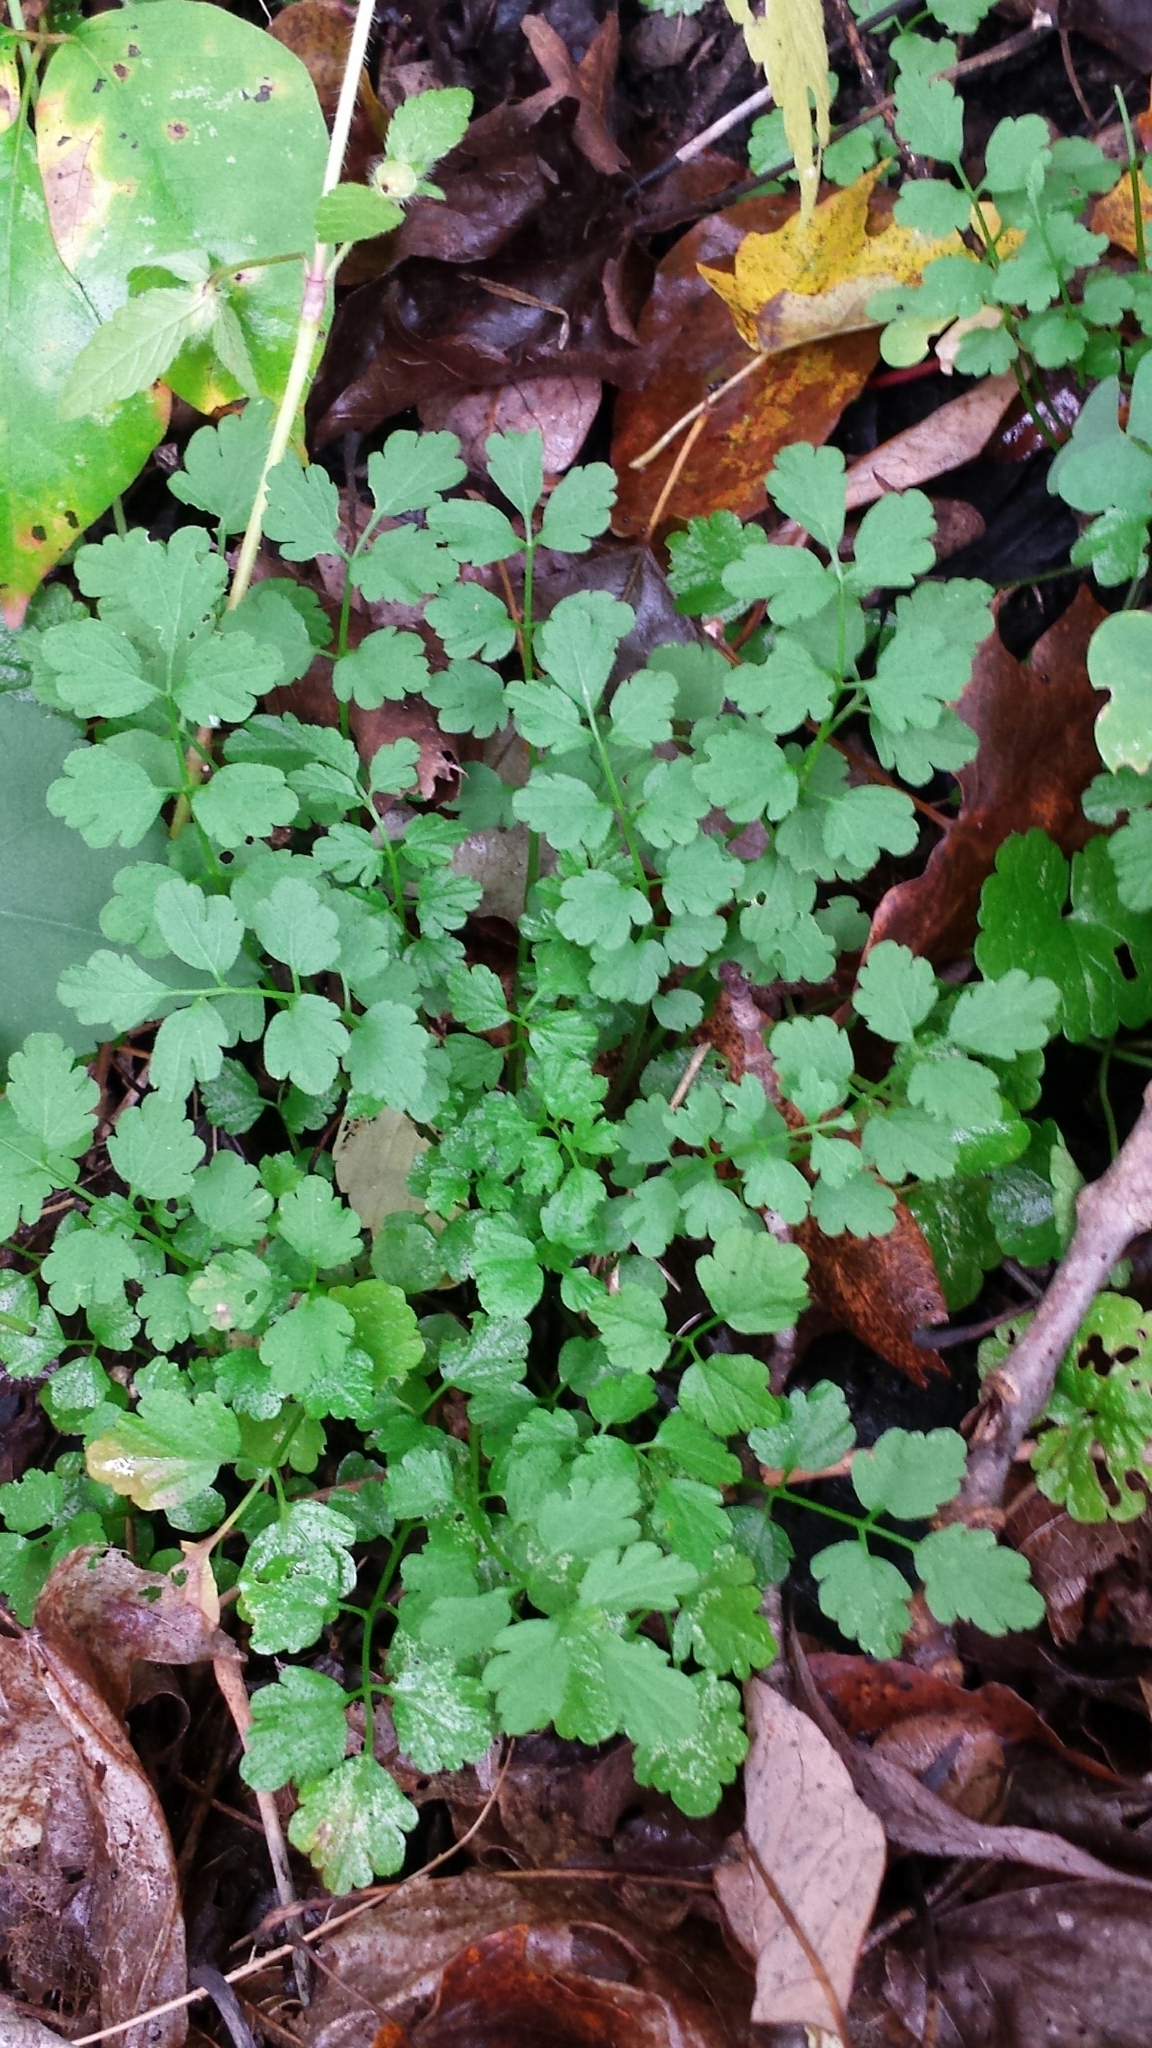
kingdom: Plantae
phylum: Tracheophyta
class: Magnoliopsida
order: Brassicales
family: Brassicaceae
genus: Cardamine
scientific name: Cardamine impatiens
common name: Narrow-leaved bitter-cress
